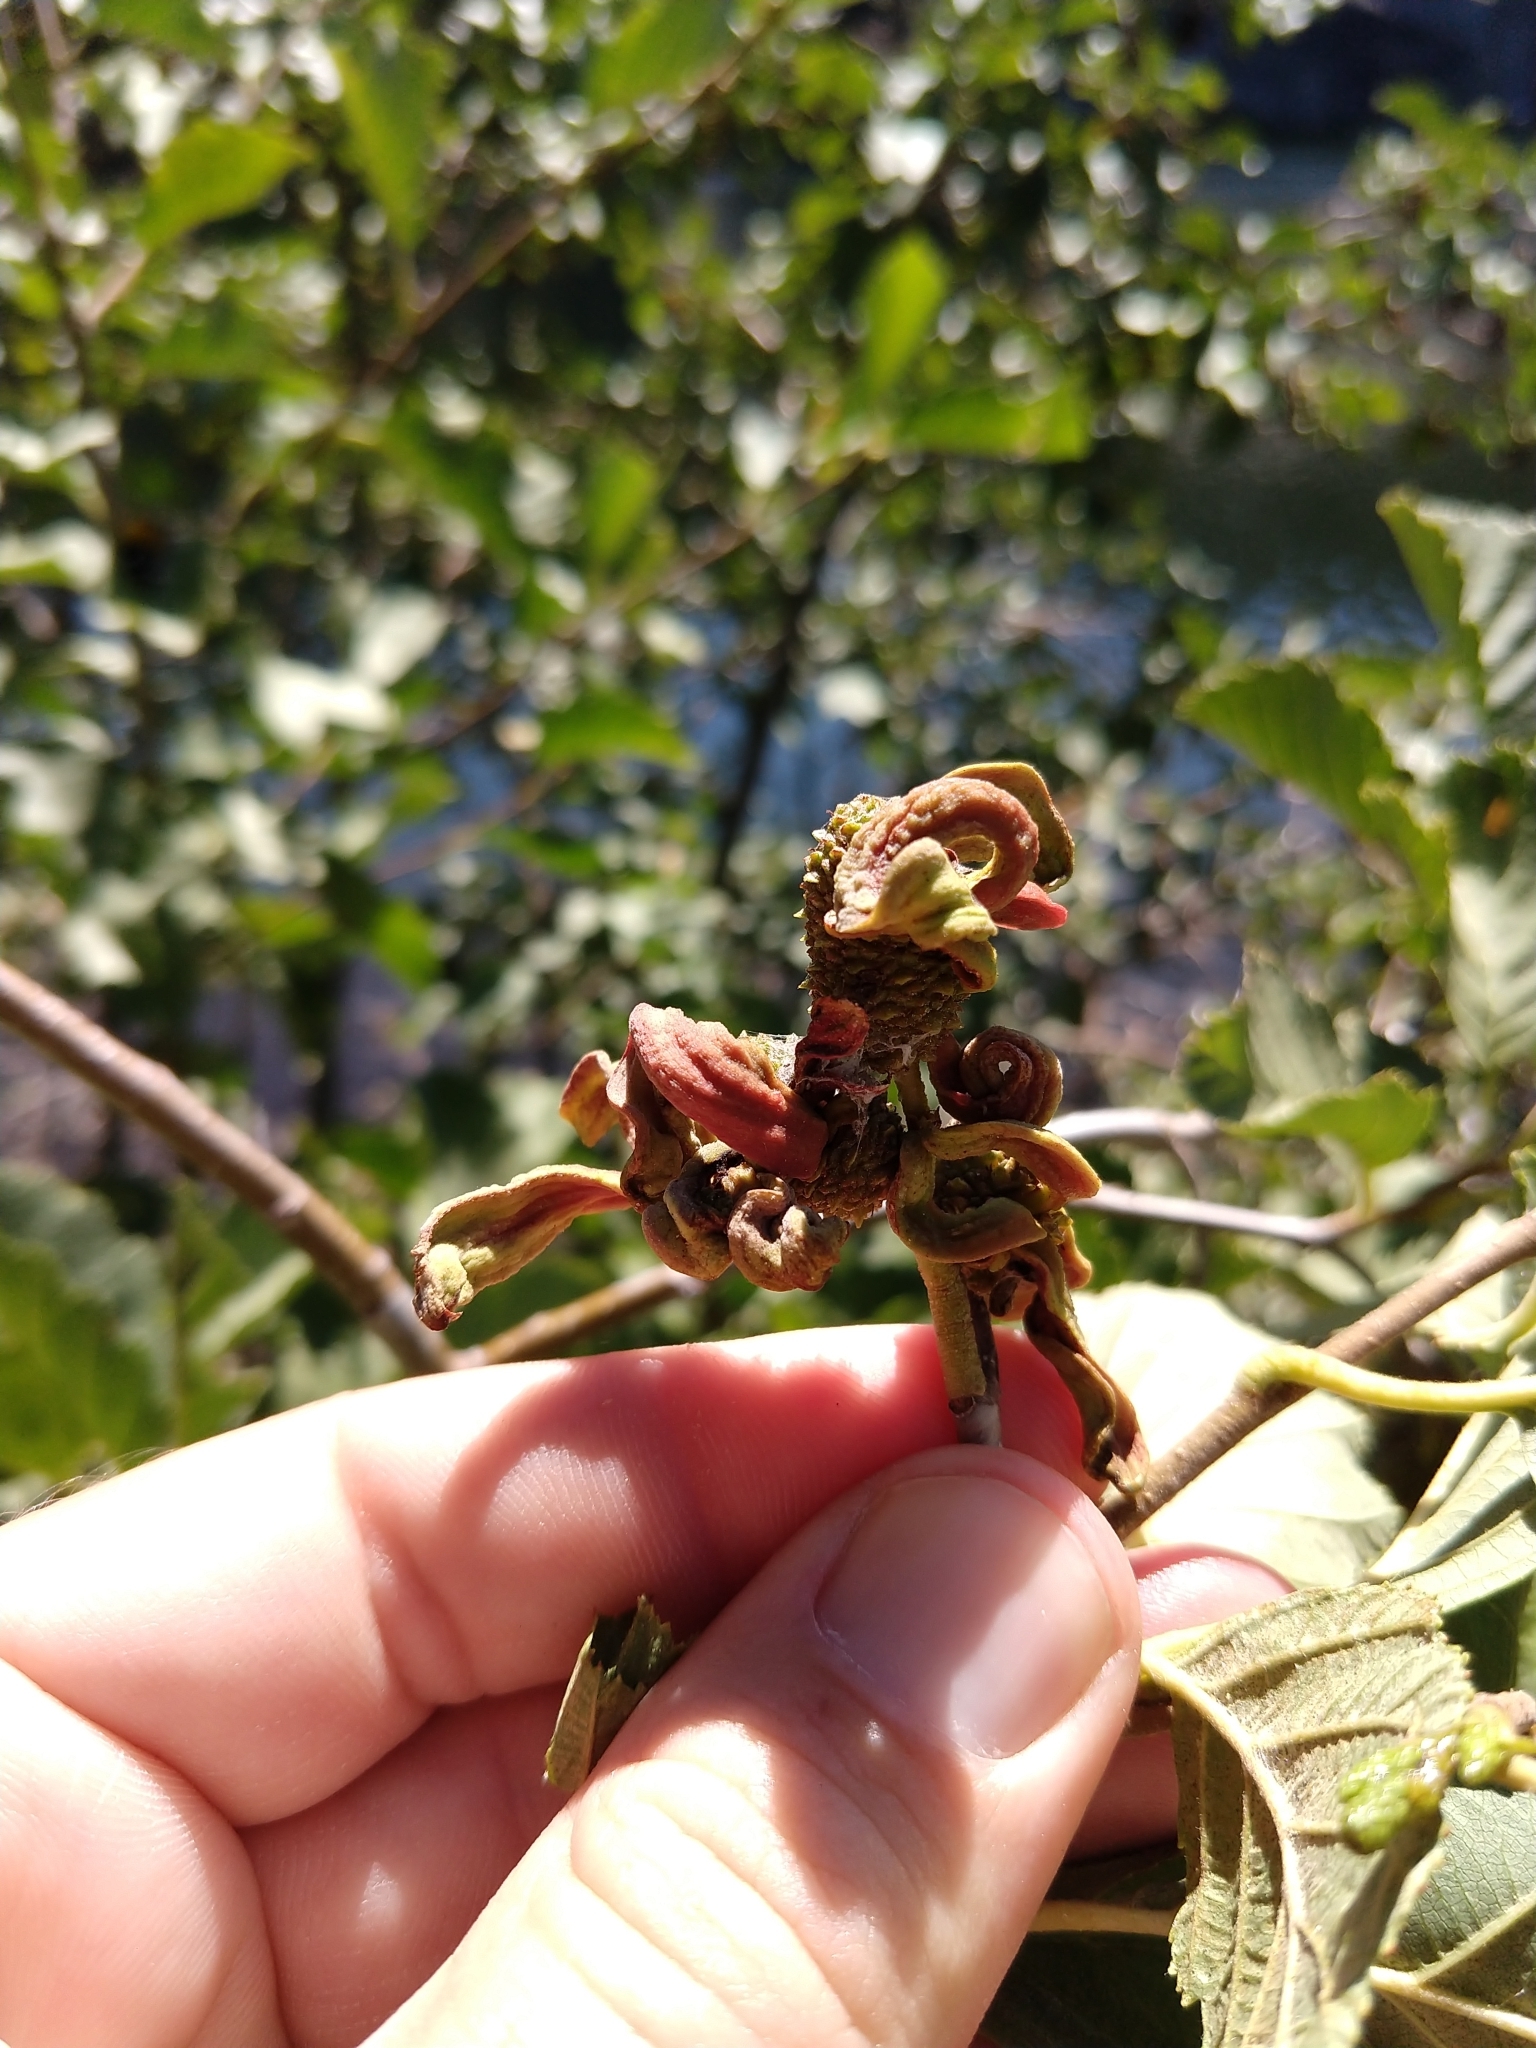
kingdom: Fungi
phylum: Ascomycota
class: Taphrinomycetes
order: Taphrinales
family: Taphrinaceae
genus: Taphrina
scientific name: Taphrina occidentalis
